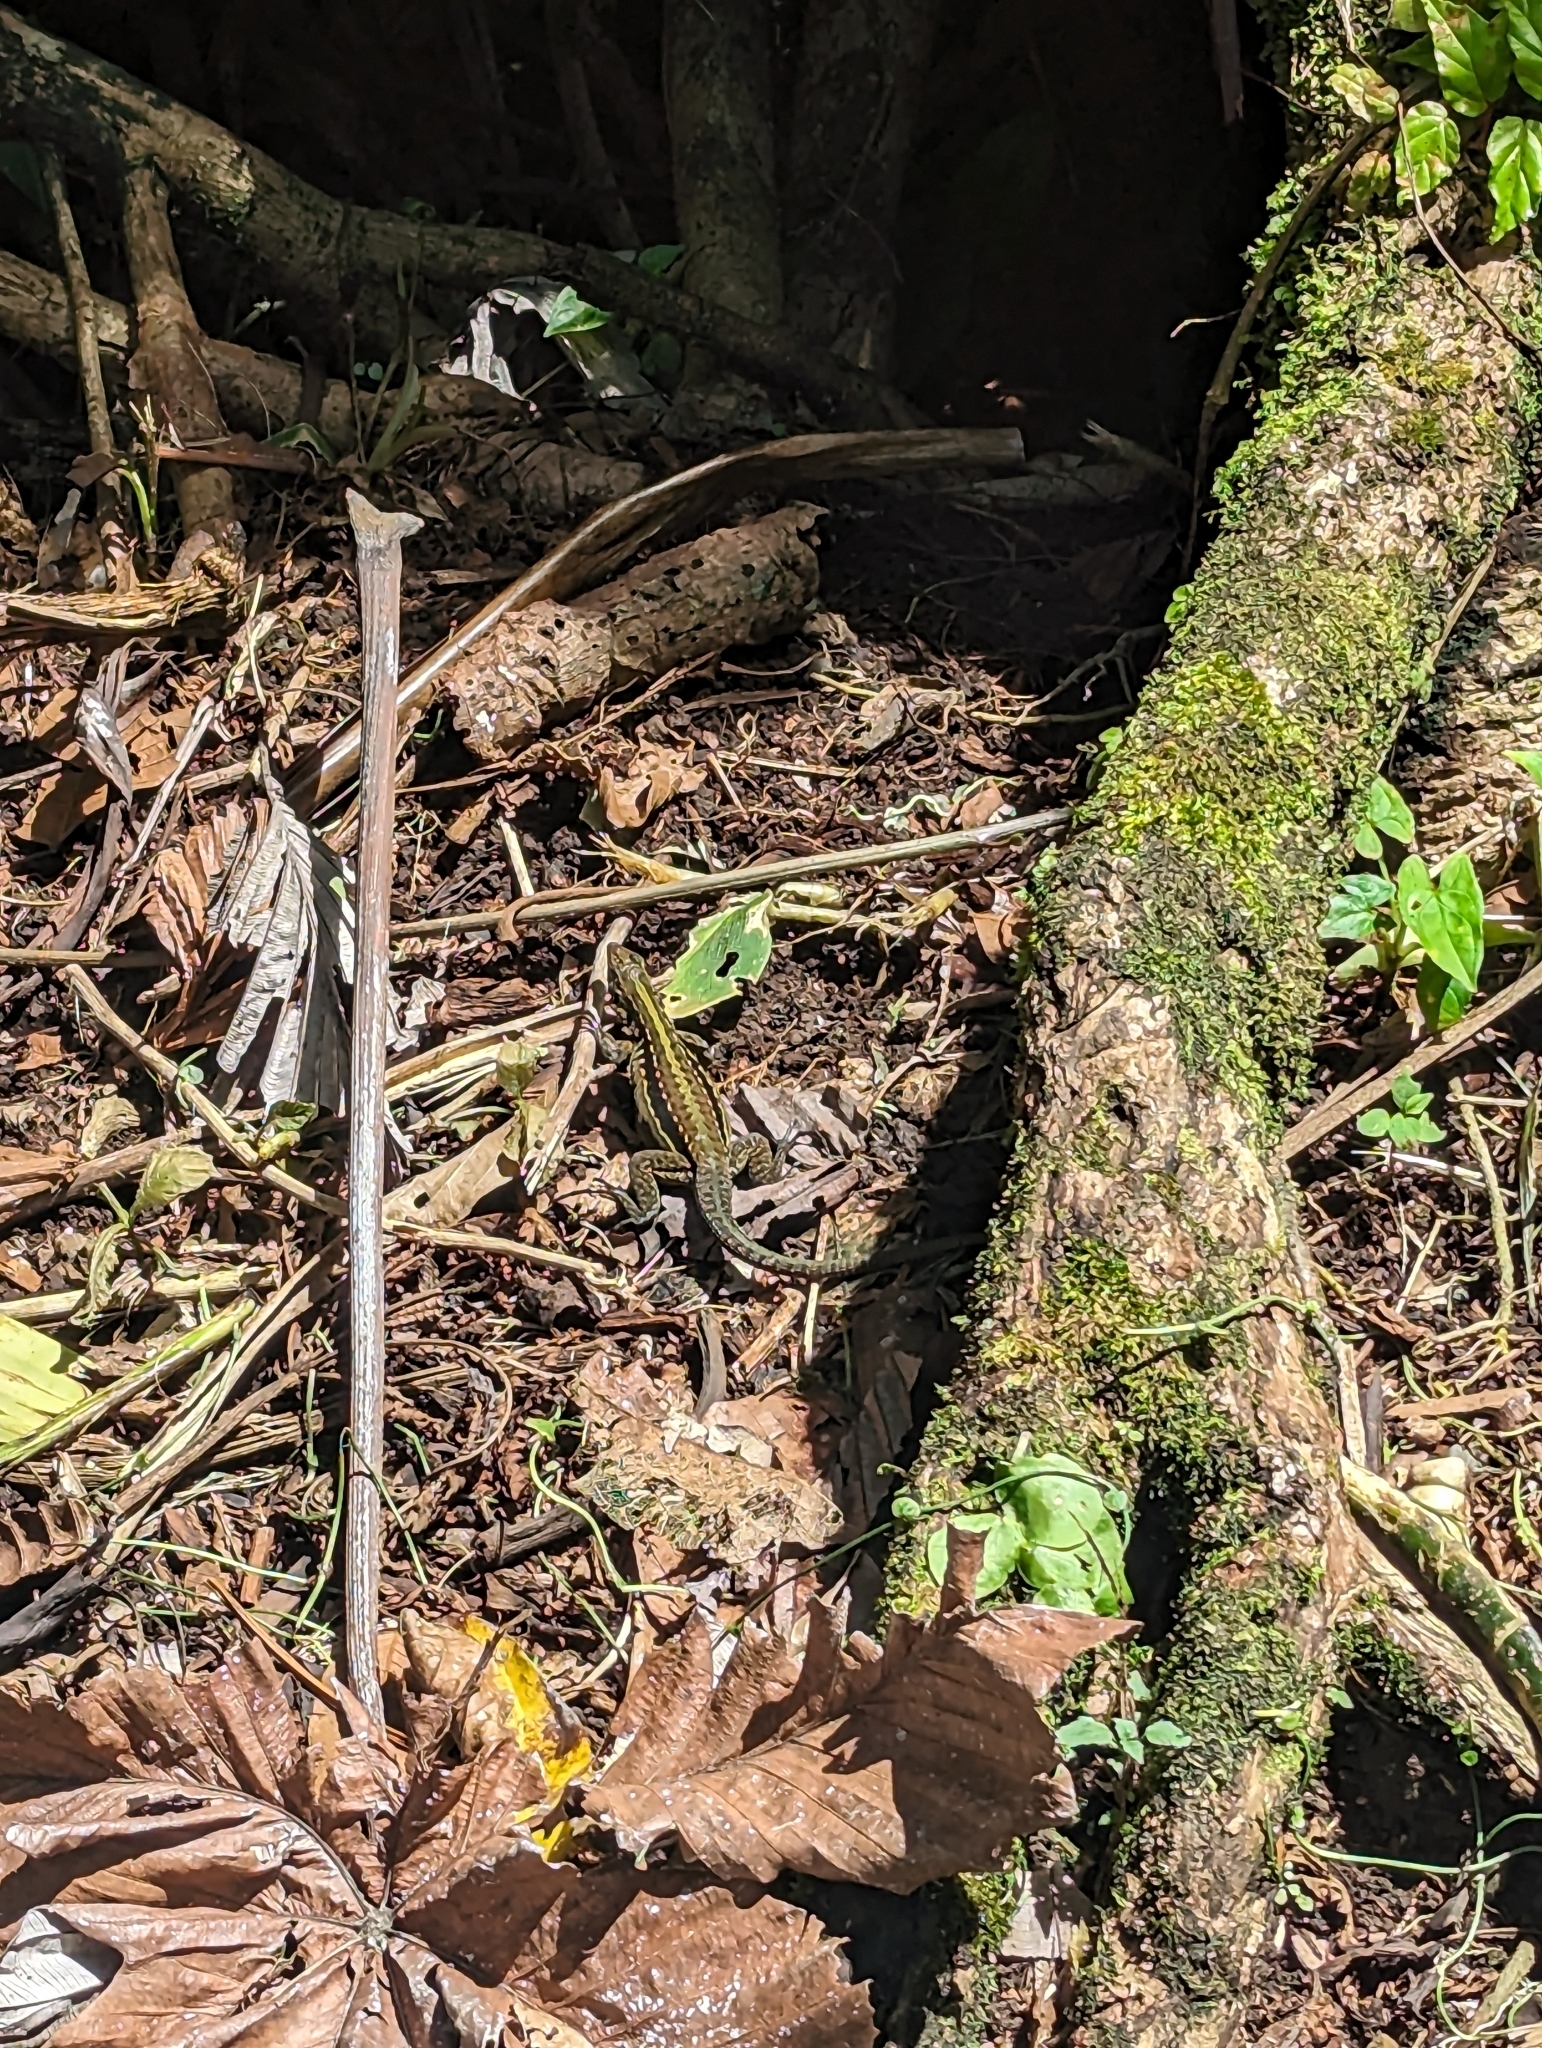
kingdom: Animalia
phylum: Chordata
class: Squamata
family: Teiidae
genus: Holcosus
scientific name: Holcosus festivus
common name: Middle american ameiva
